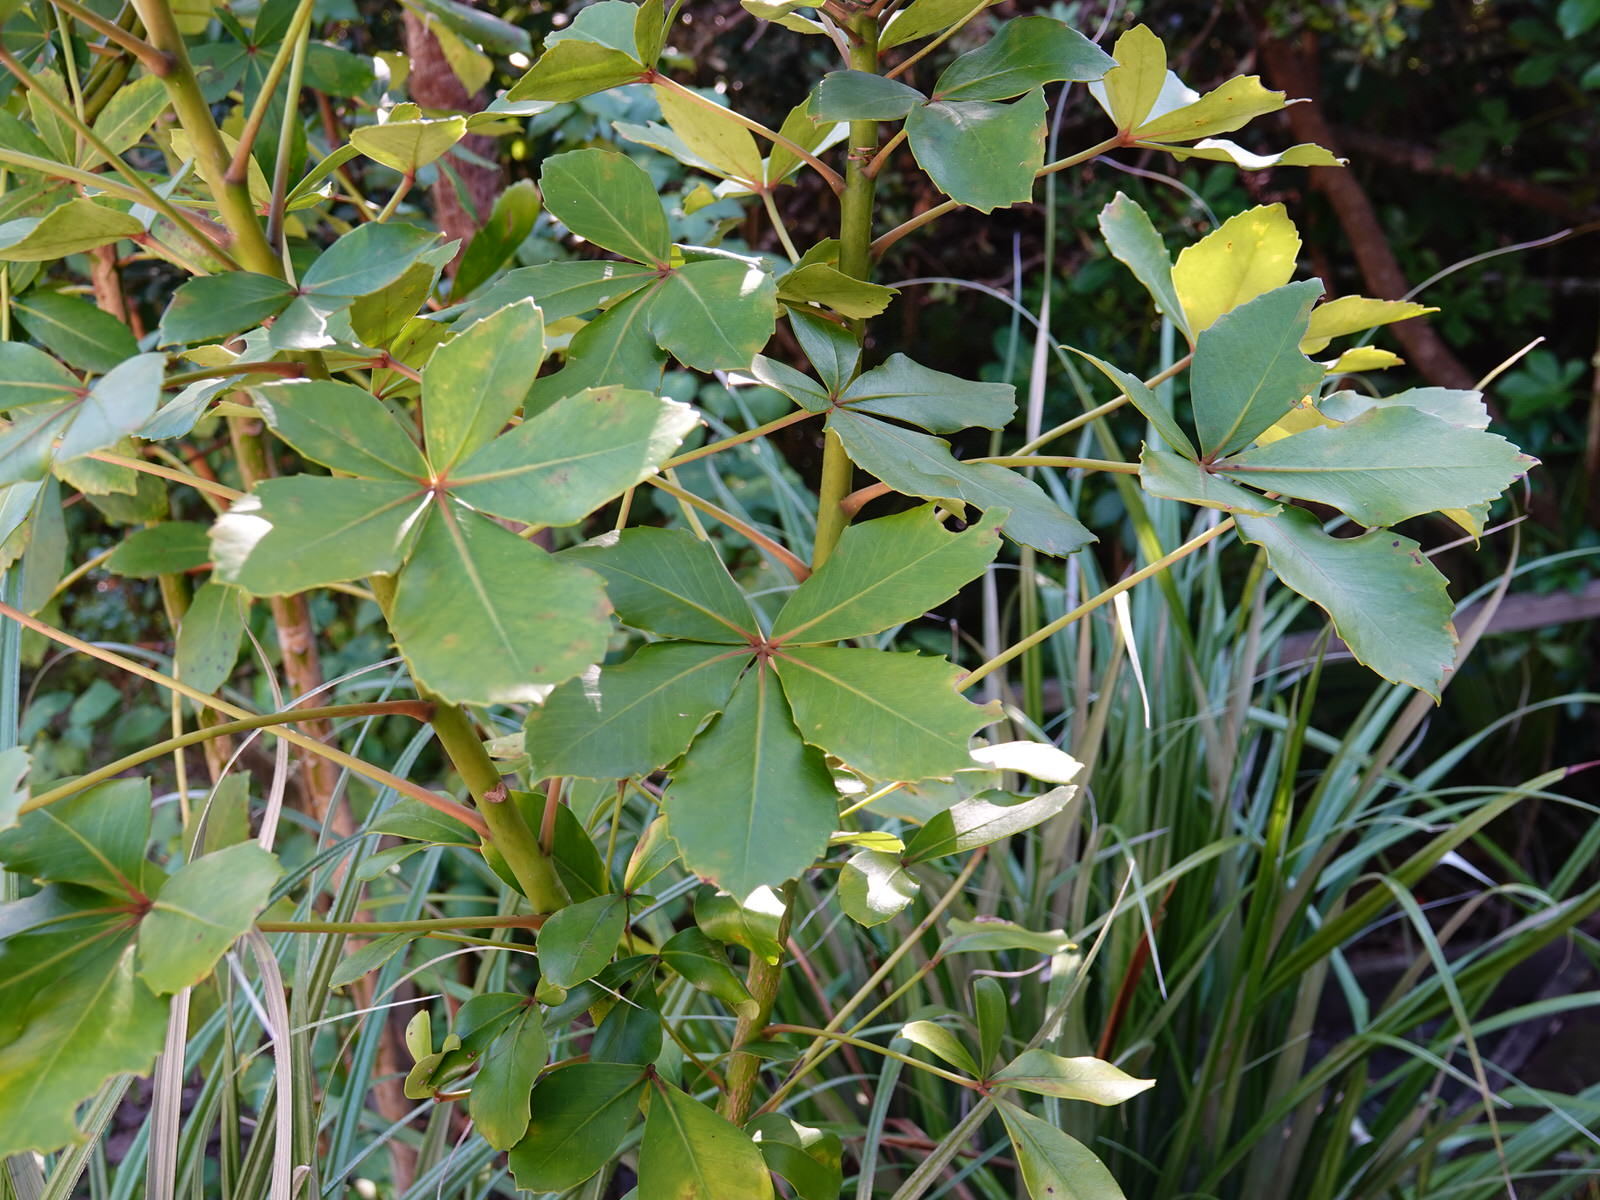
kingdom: Plantae
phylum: Tracheophyta
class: Magnoliopsida
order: Apiales
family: Araliaceae
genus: Pseudopanax
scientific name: Pseudopanax lessonii
